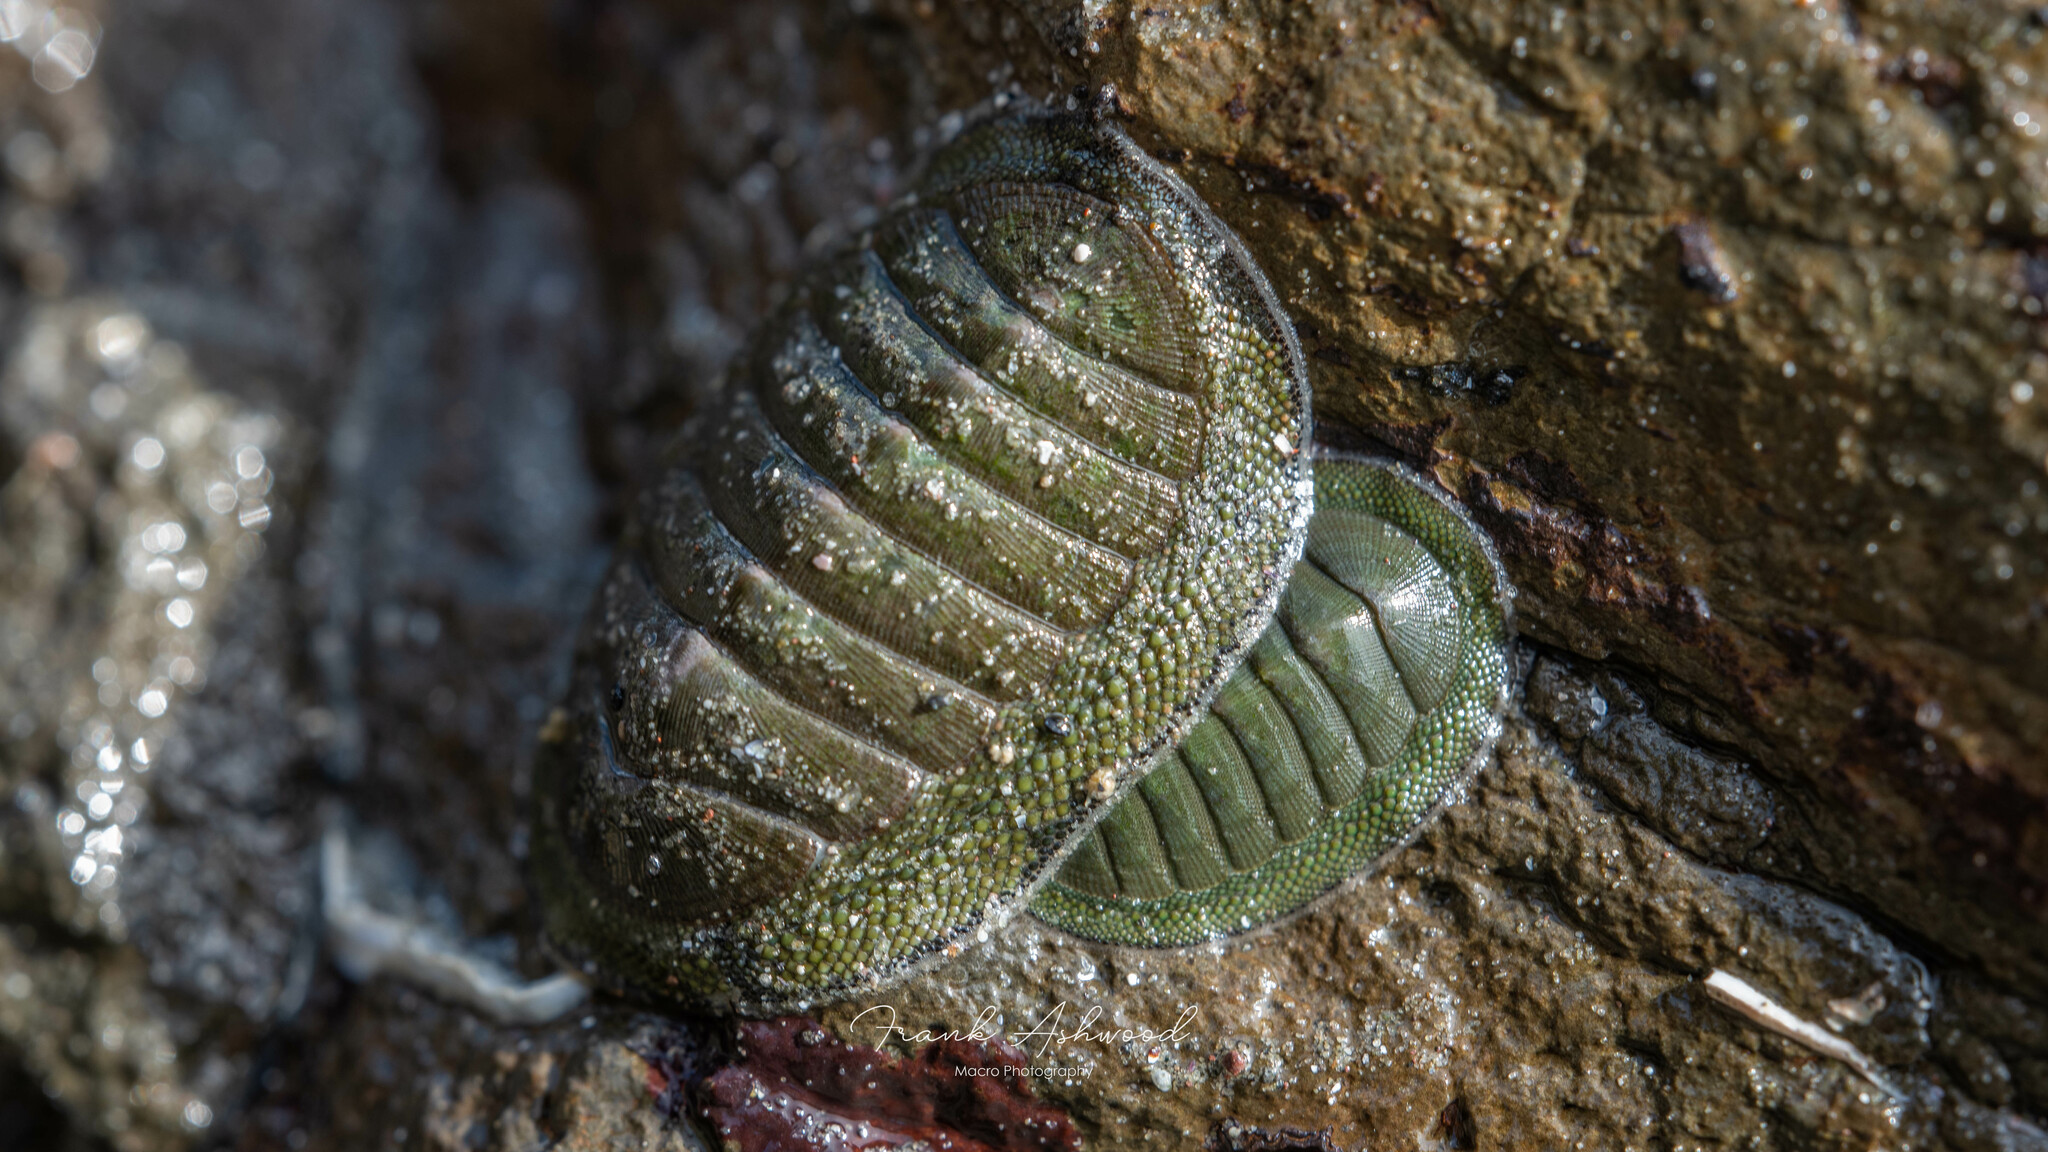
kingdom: Animalia
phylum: Mollusca
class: Polyplacophora
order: Chitonida
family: Chitonidae
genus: Chiton
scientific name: Chiton glaucus
